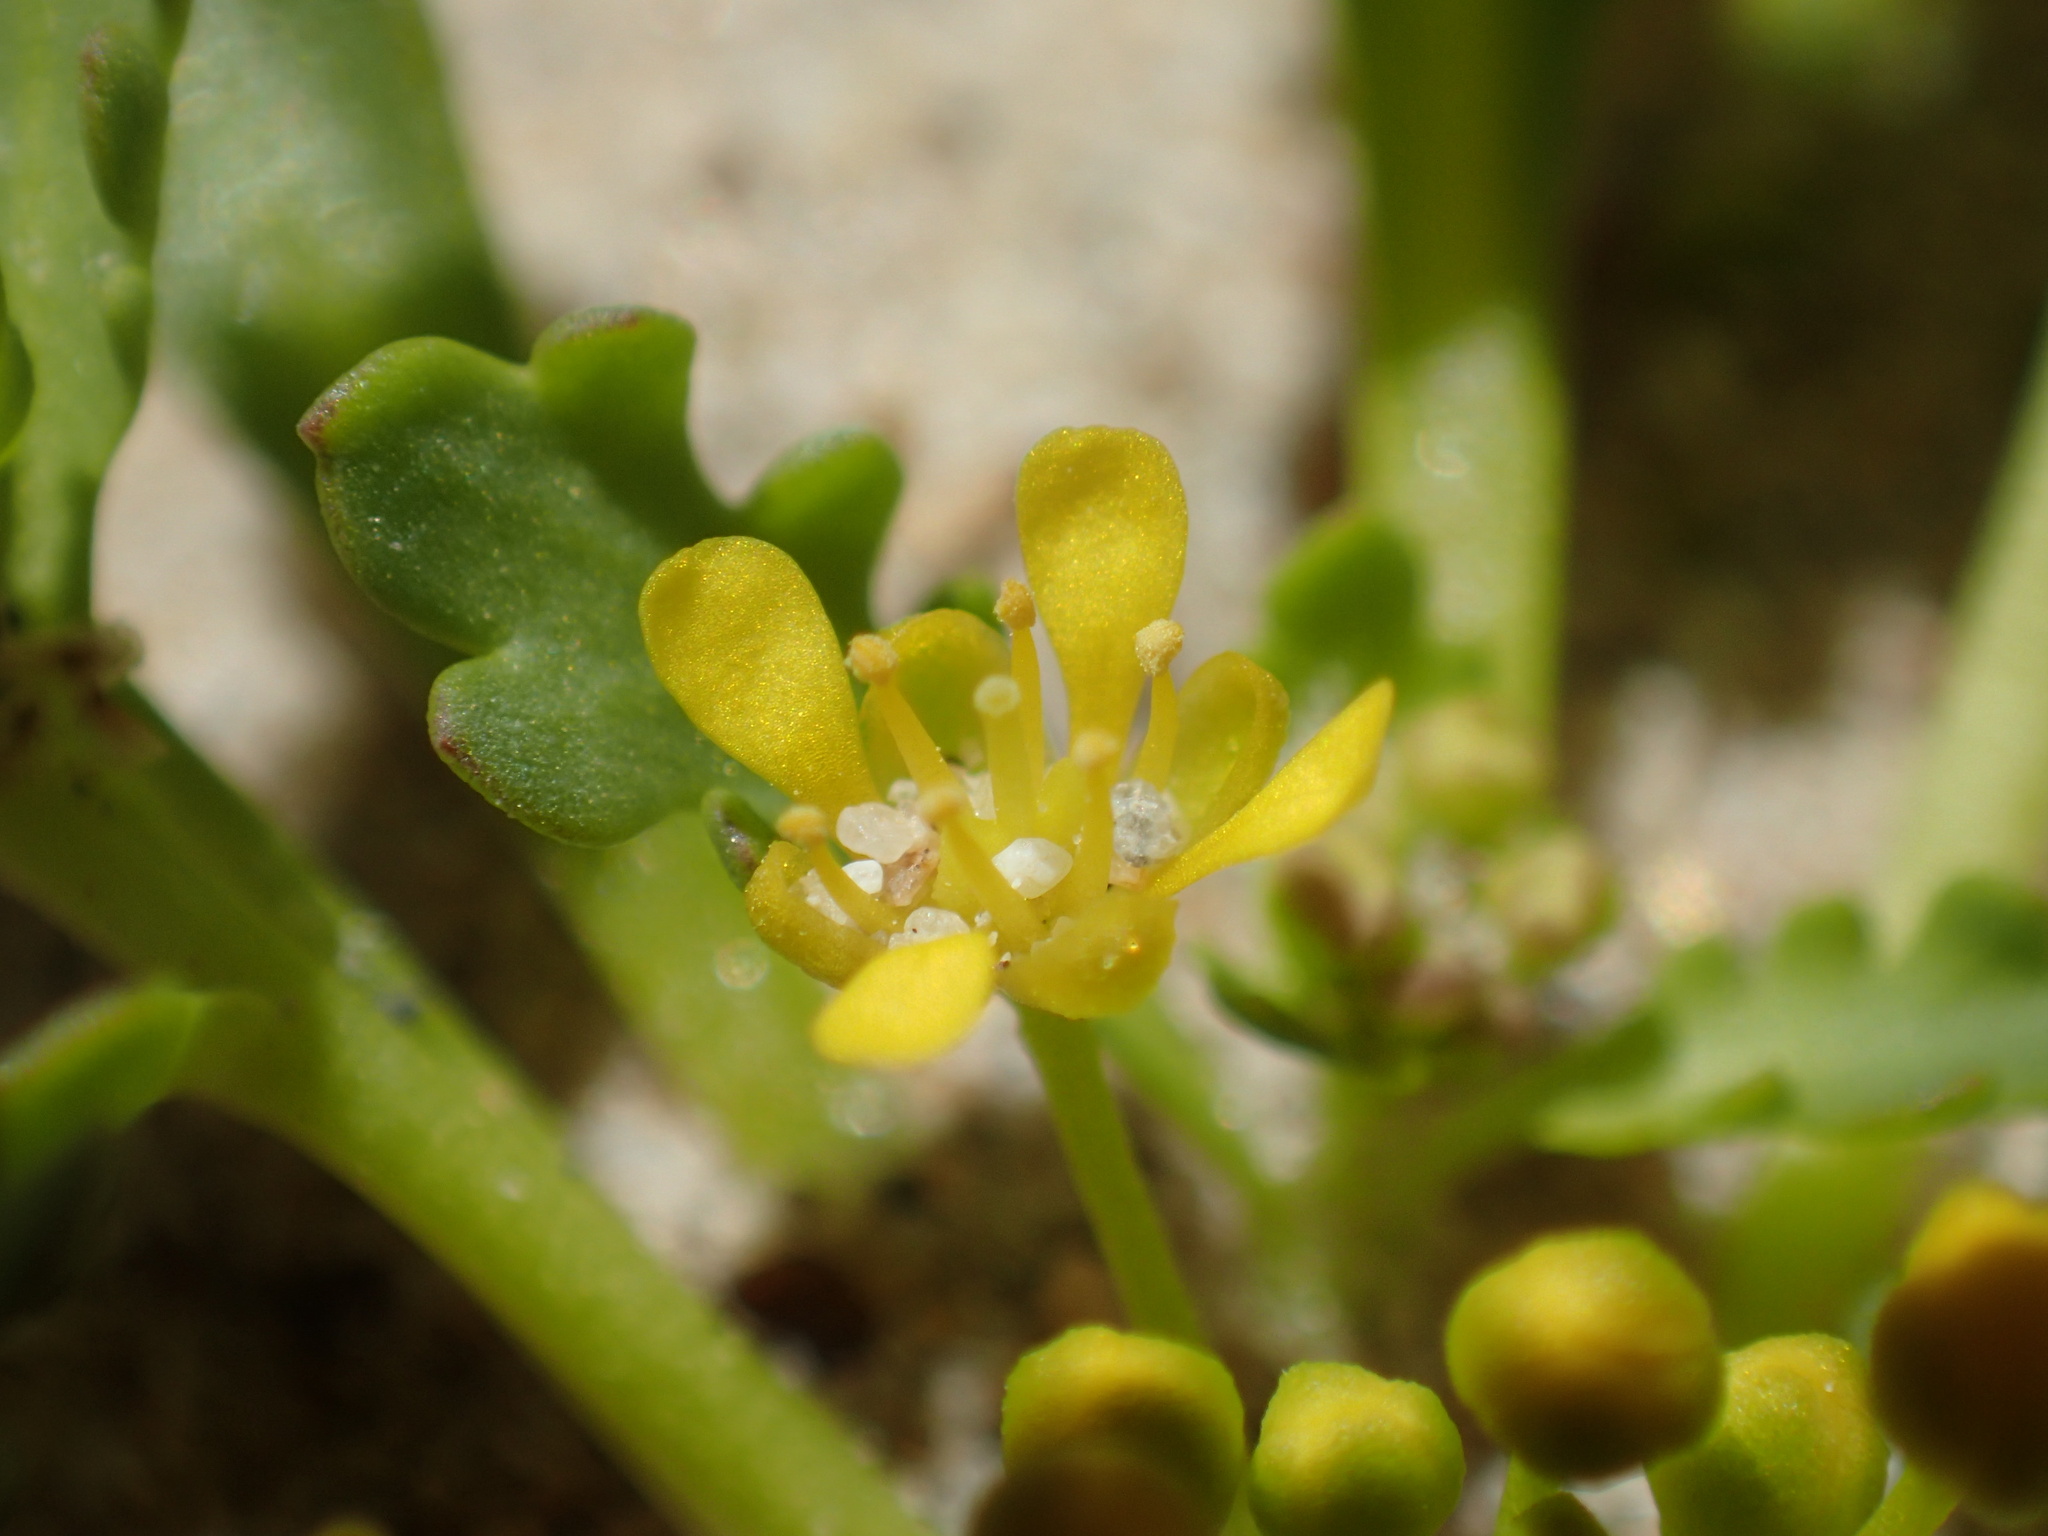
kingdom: Plantae
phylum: Tracheophyta
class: Magnoliopsida
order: Brassicales
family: Brassicaceae
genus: Lepidium
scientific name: Lepidium flavum
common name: Yellow pepperwort
